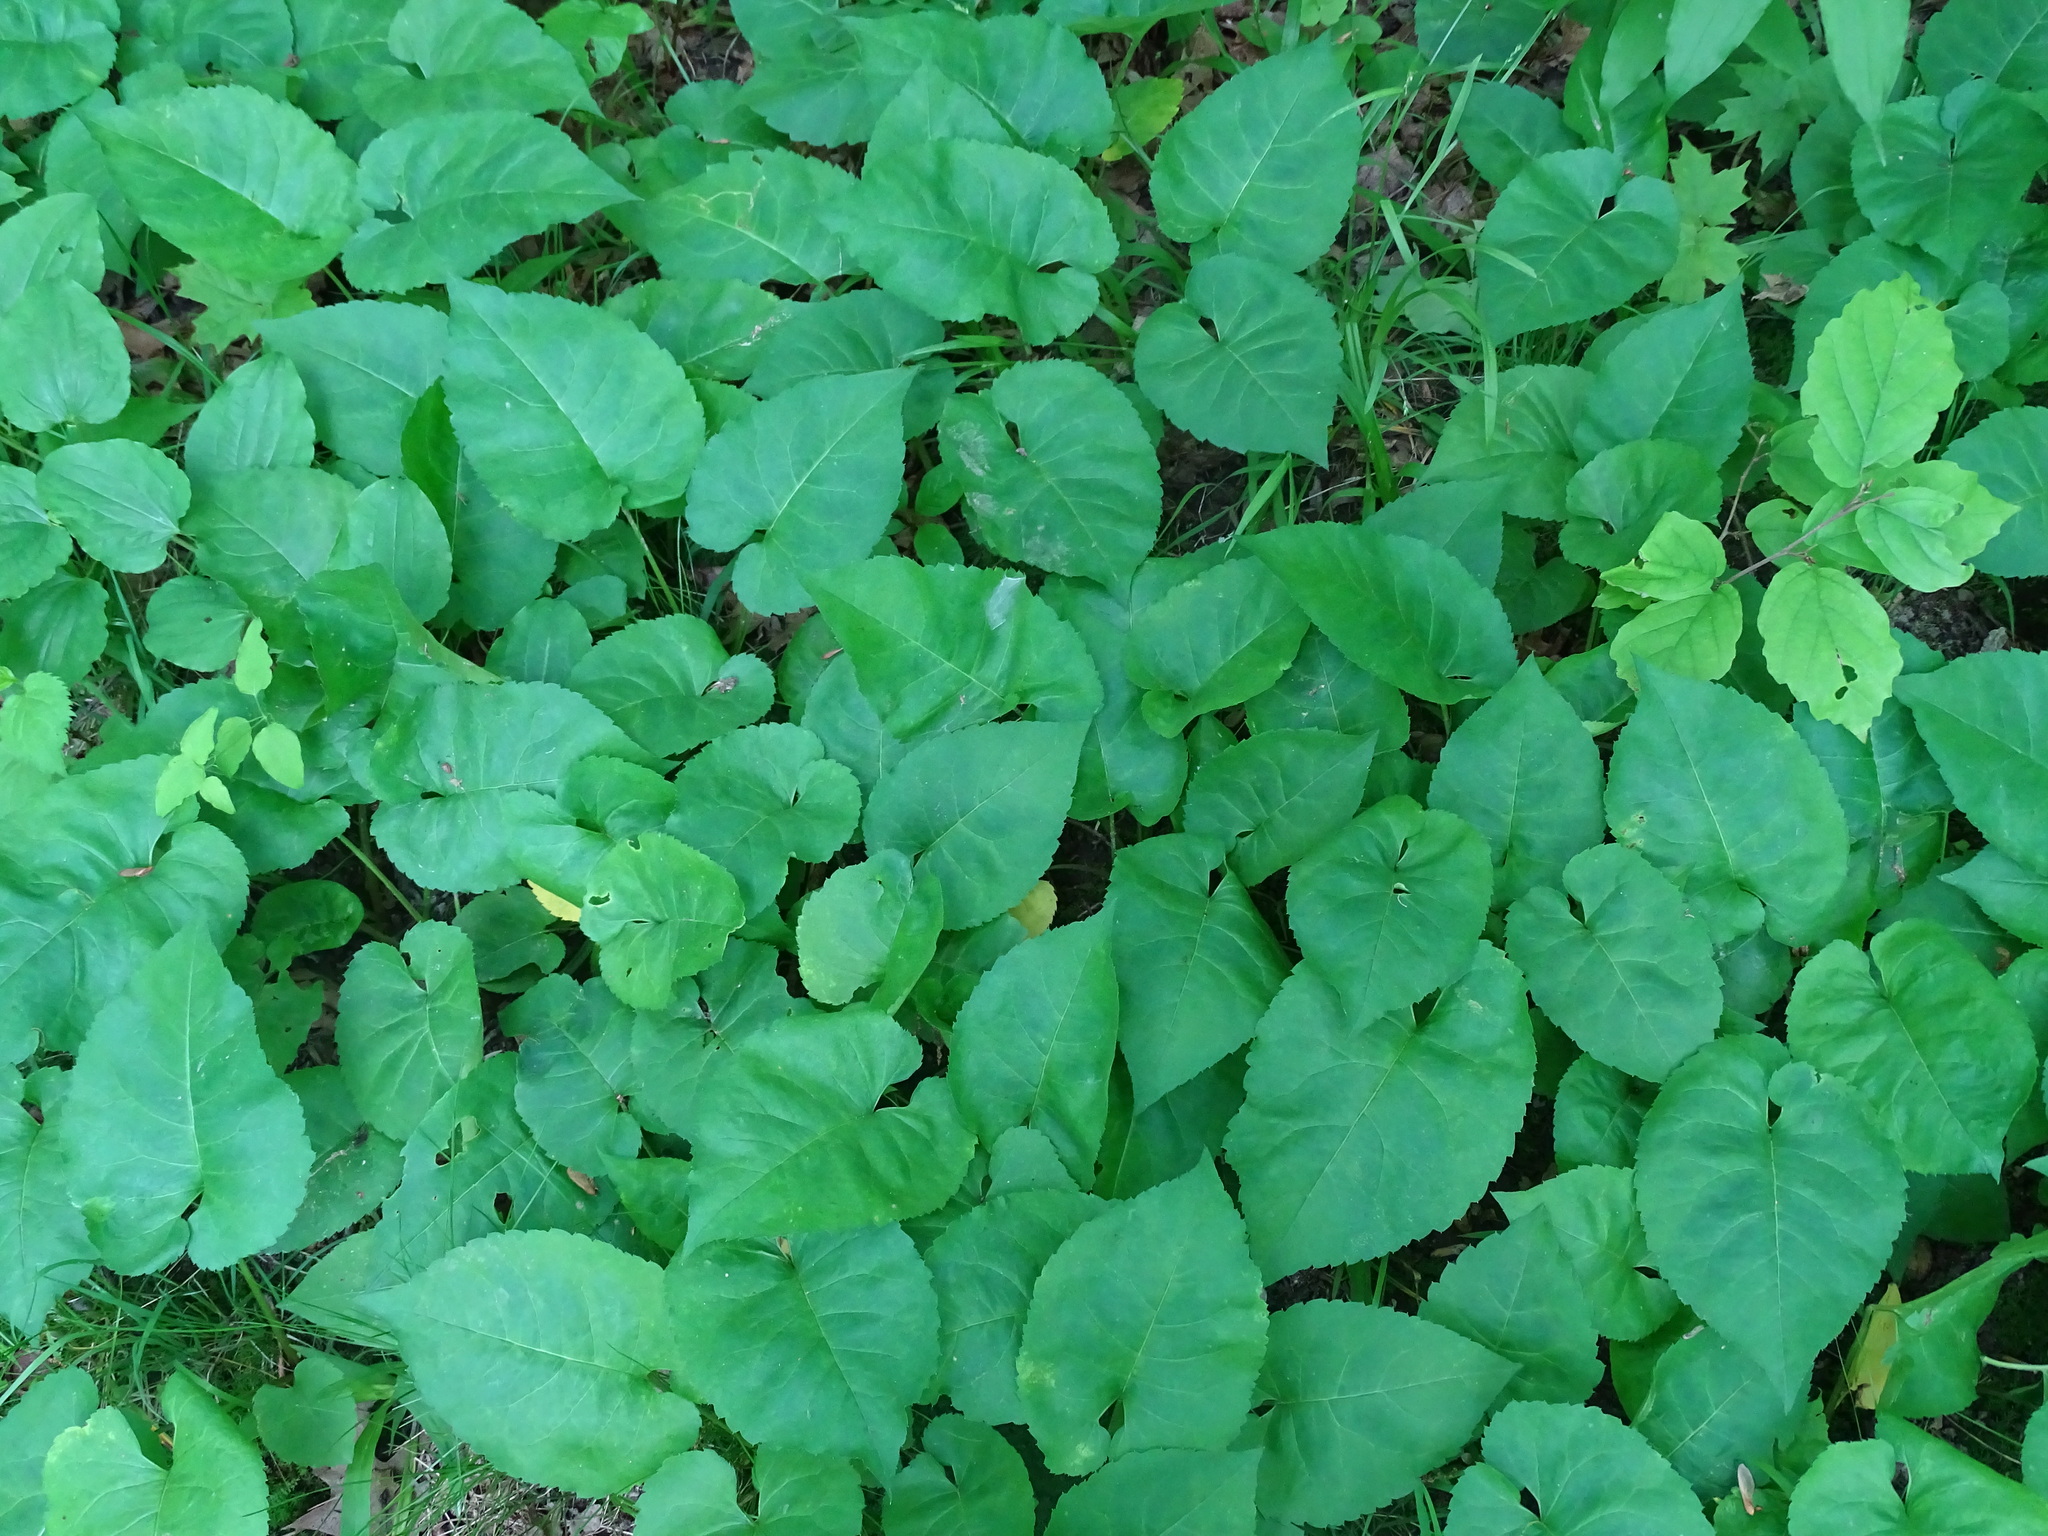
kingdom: Plantae
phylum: Tracheophyta
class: Magnoliopsida
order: Asterales
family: Asteraceae
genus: Eurybia
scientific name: Eurybia macrophylla
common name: Big-leaved aster
